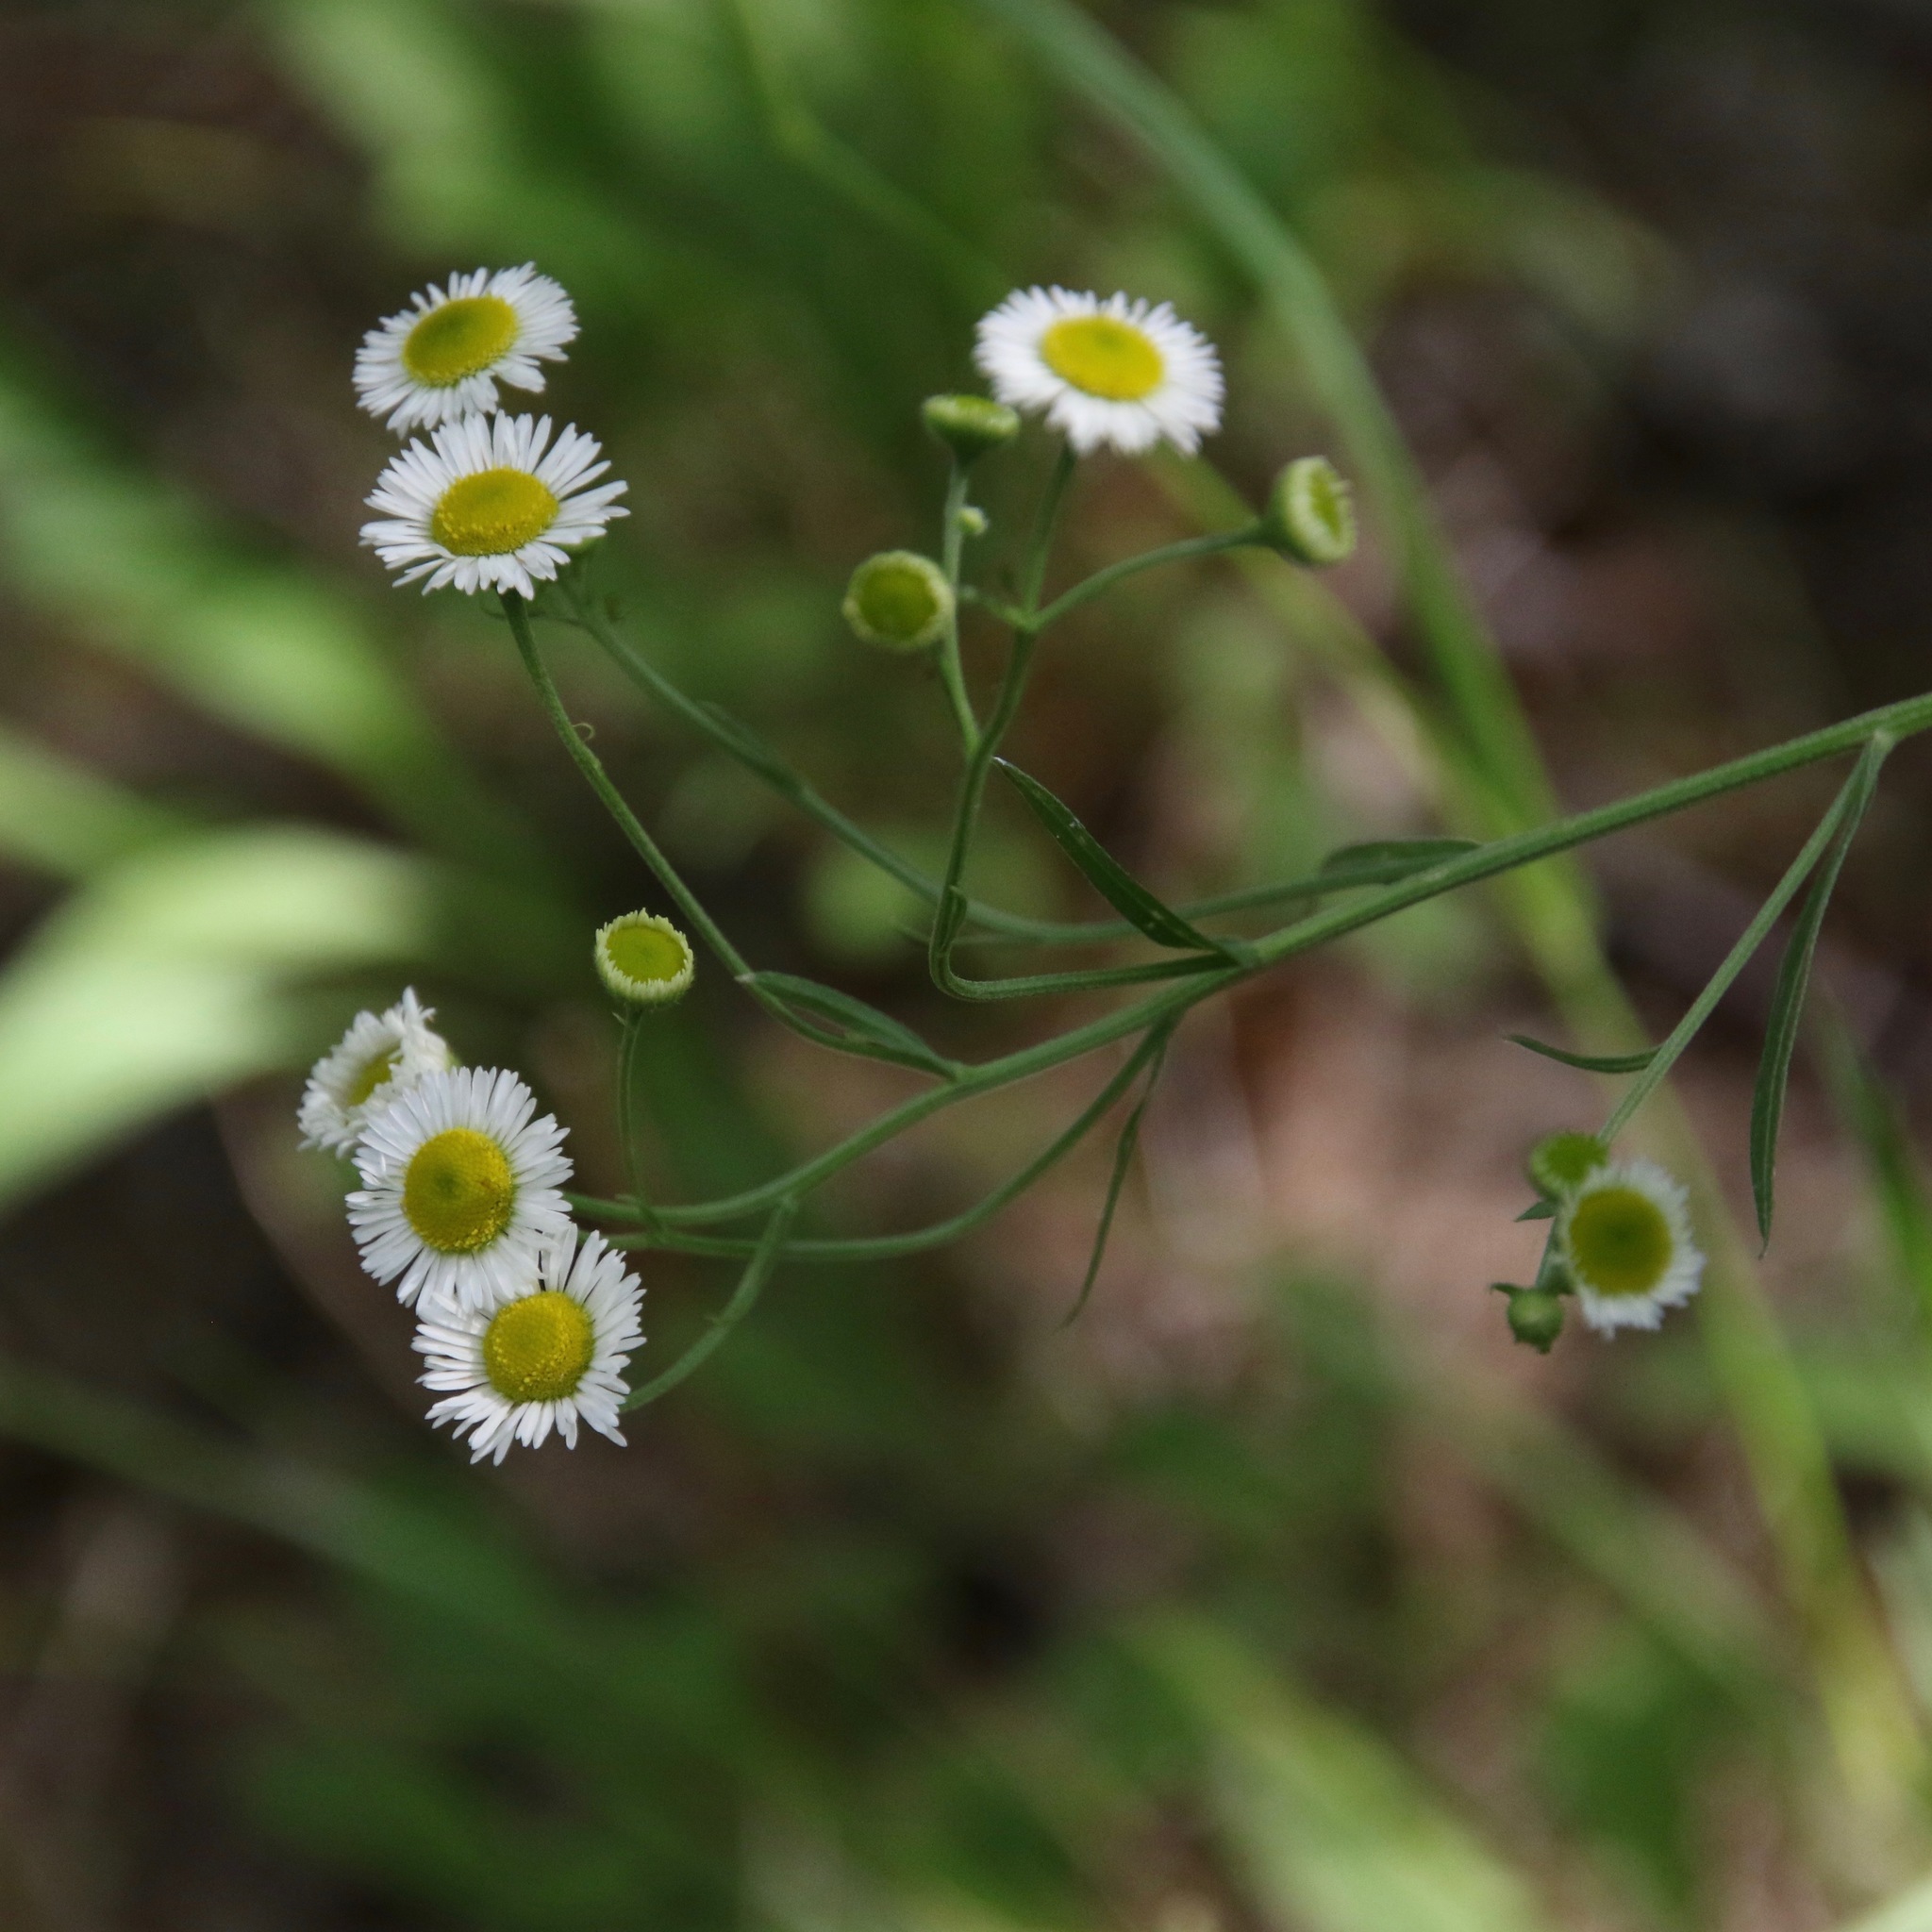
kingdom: Plantae
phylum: Tracheophyta
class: Magnoliopsida
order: Asterales
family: Asteraceae
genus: Erigeron
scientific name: Erigeron strigosus
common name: Common eastern fleabane
